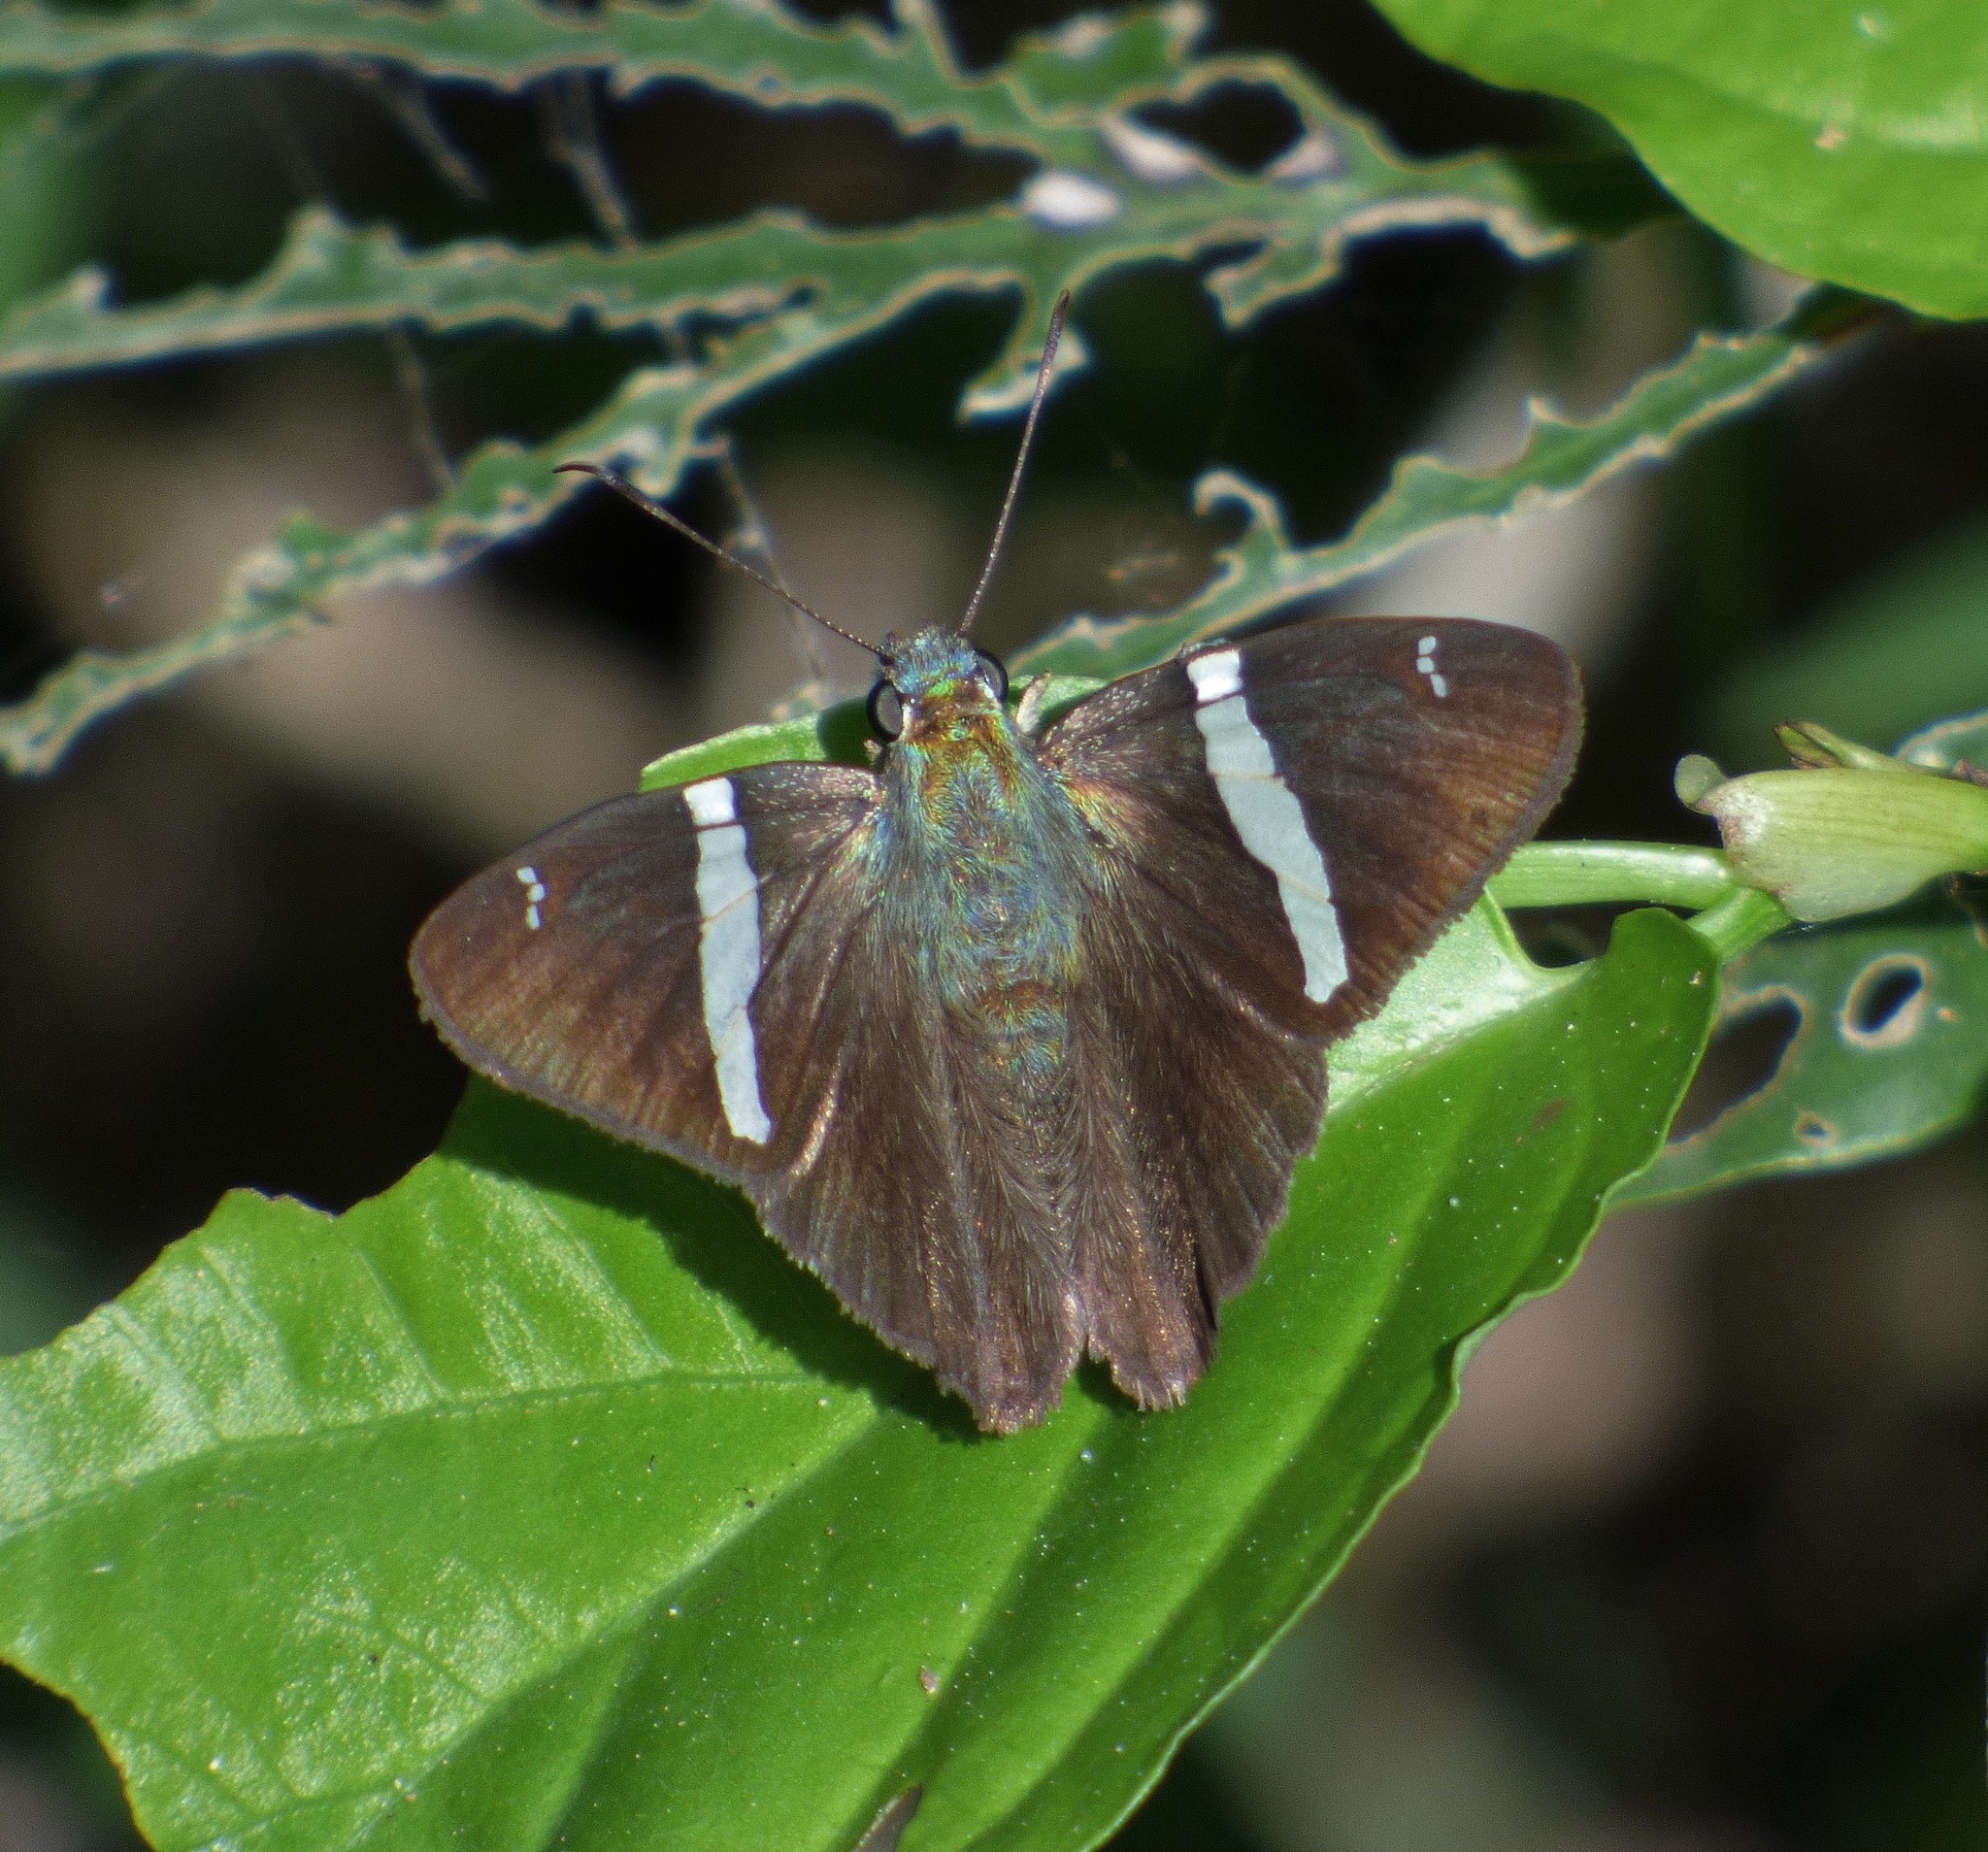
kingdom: Animalia
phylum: Arthropoda
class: Insecta
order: Lepidoptera
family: Hesperiidae
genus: Autochton
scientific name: Autochton neis
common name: Broad-banded skipper
